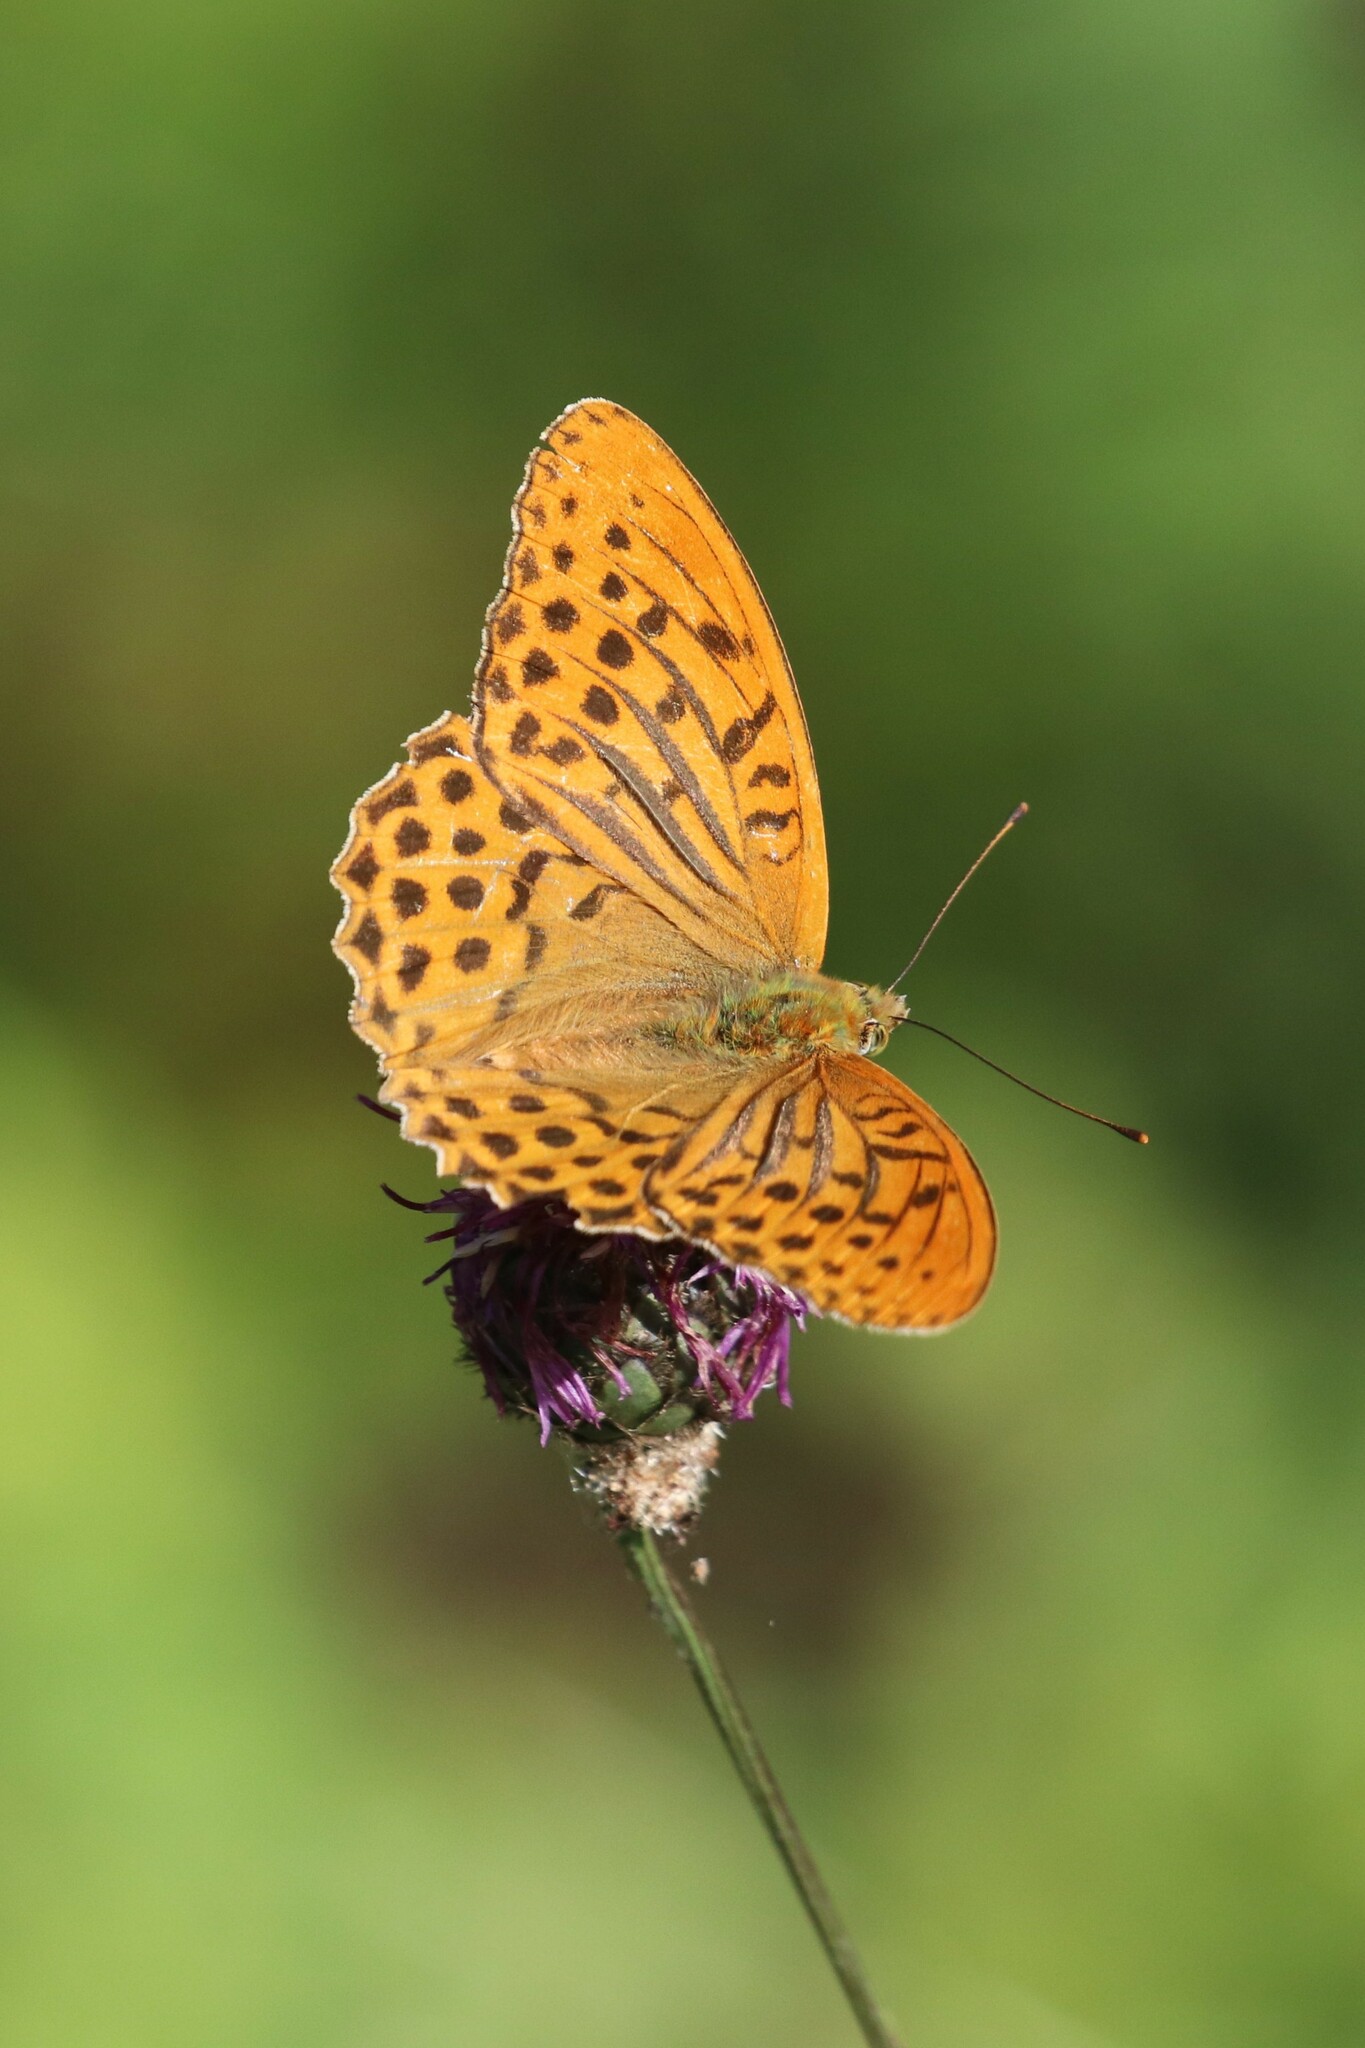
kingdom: Animalia
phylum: Arthropoda
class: Insecta
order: Lepidoptera
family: Nymphalidae
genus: Argynnis
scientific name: Argynnis paphia
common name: Silver-washed fritillary
